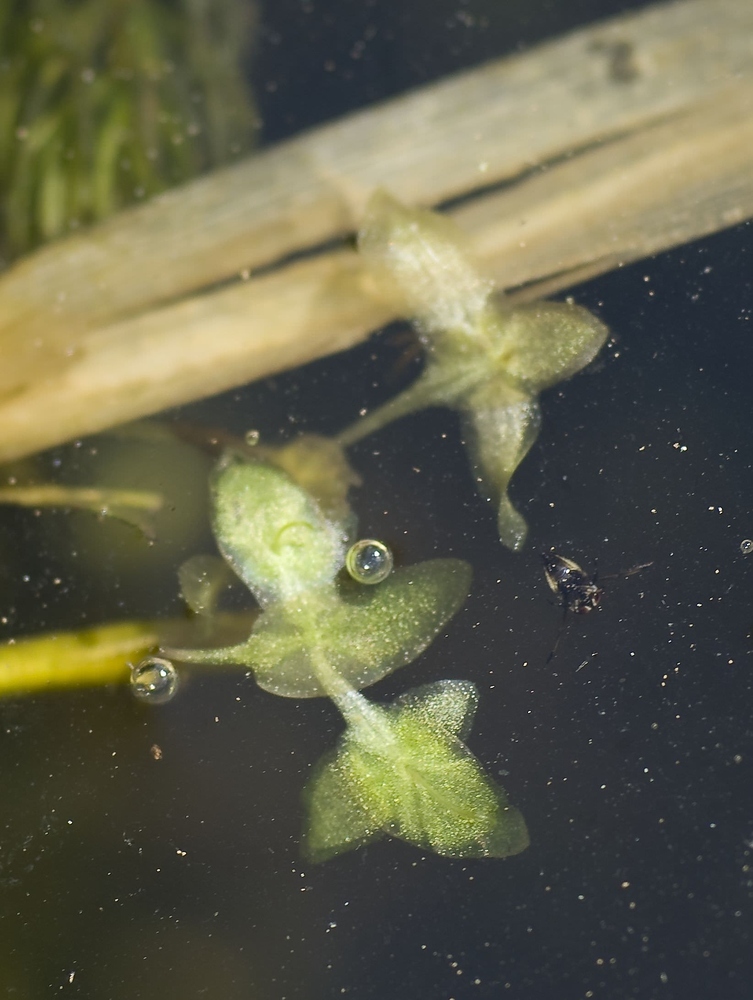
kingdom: Plantae
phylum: Tracheophyta
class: Liliopsida
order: Alismatales
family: Araceae
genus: Lemna
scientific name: Lemna trisulca
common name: Ivy-leaved duckweed
